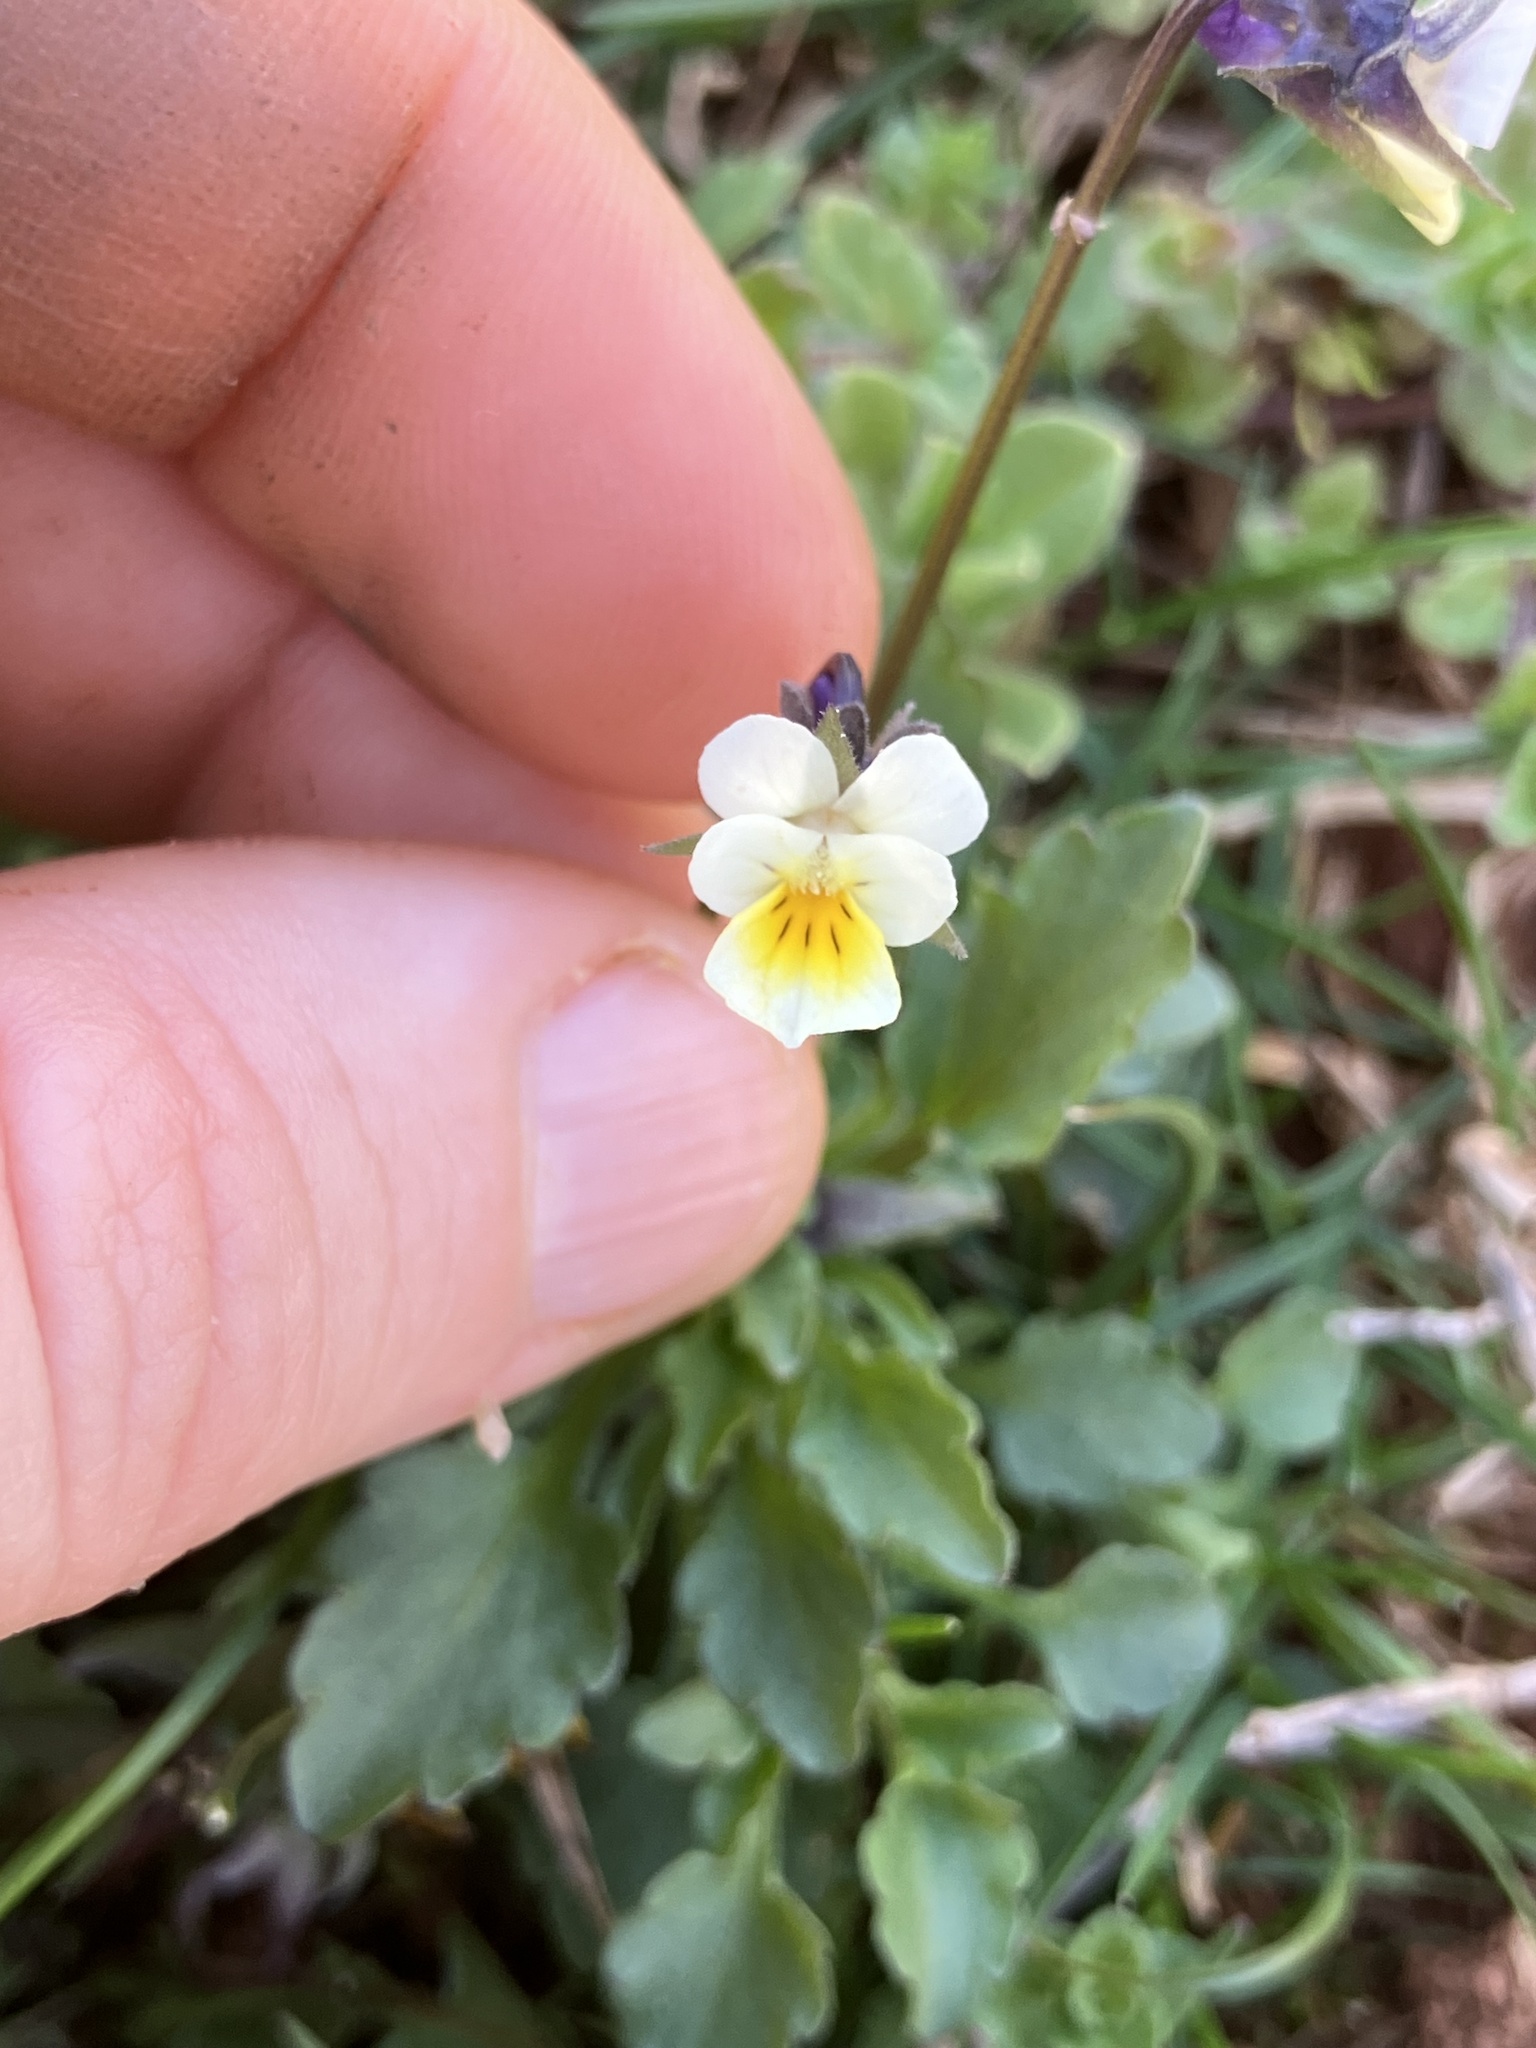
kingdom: Plantae
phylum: Tracheophyta
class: Magnoliopsida
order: Malpighiales
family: Violaceae
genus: Viola
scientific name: Viola arvensis
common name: Field pansy
